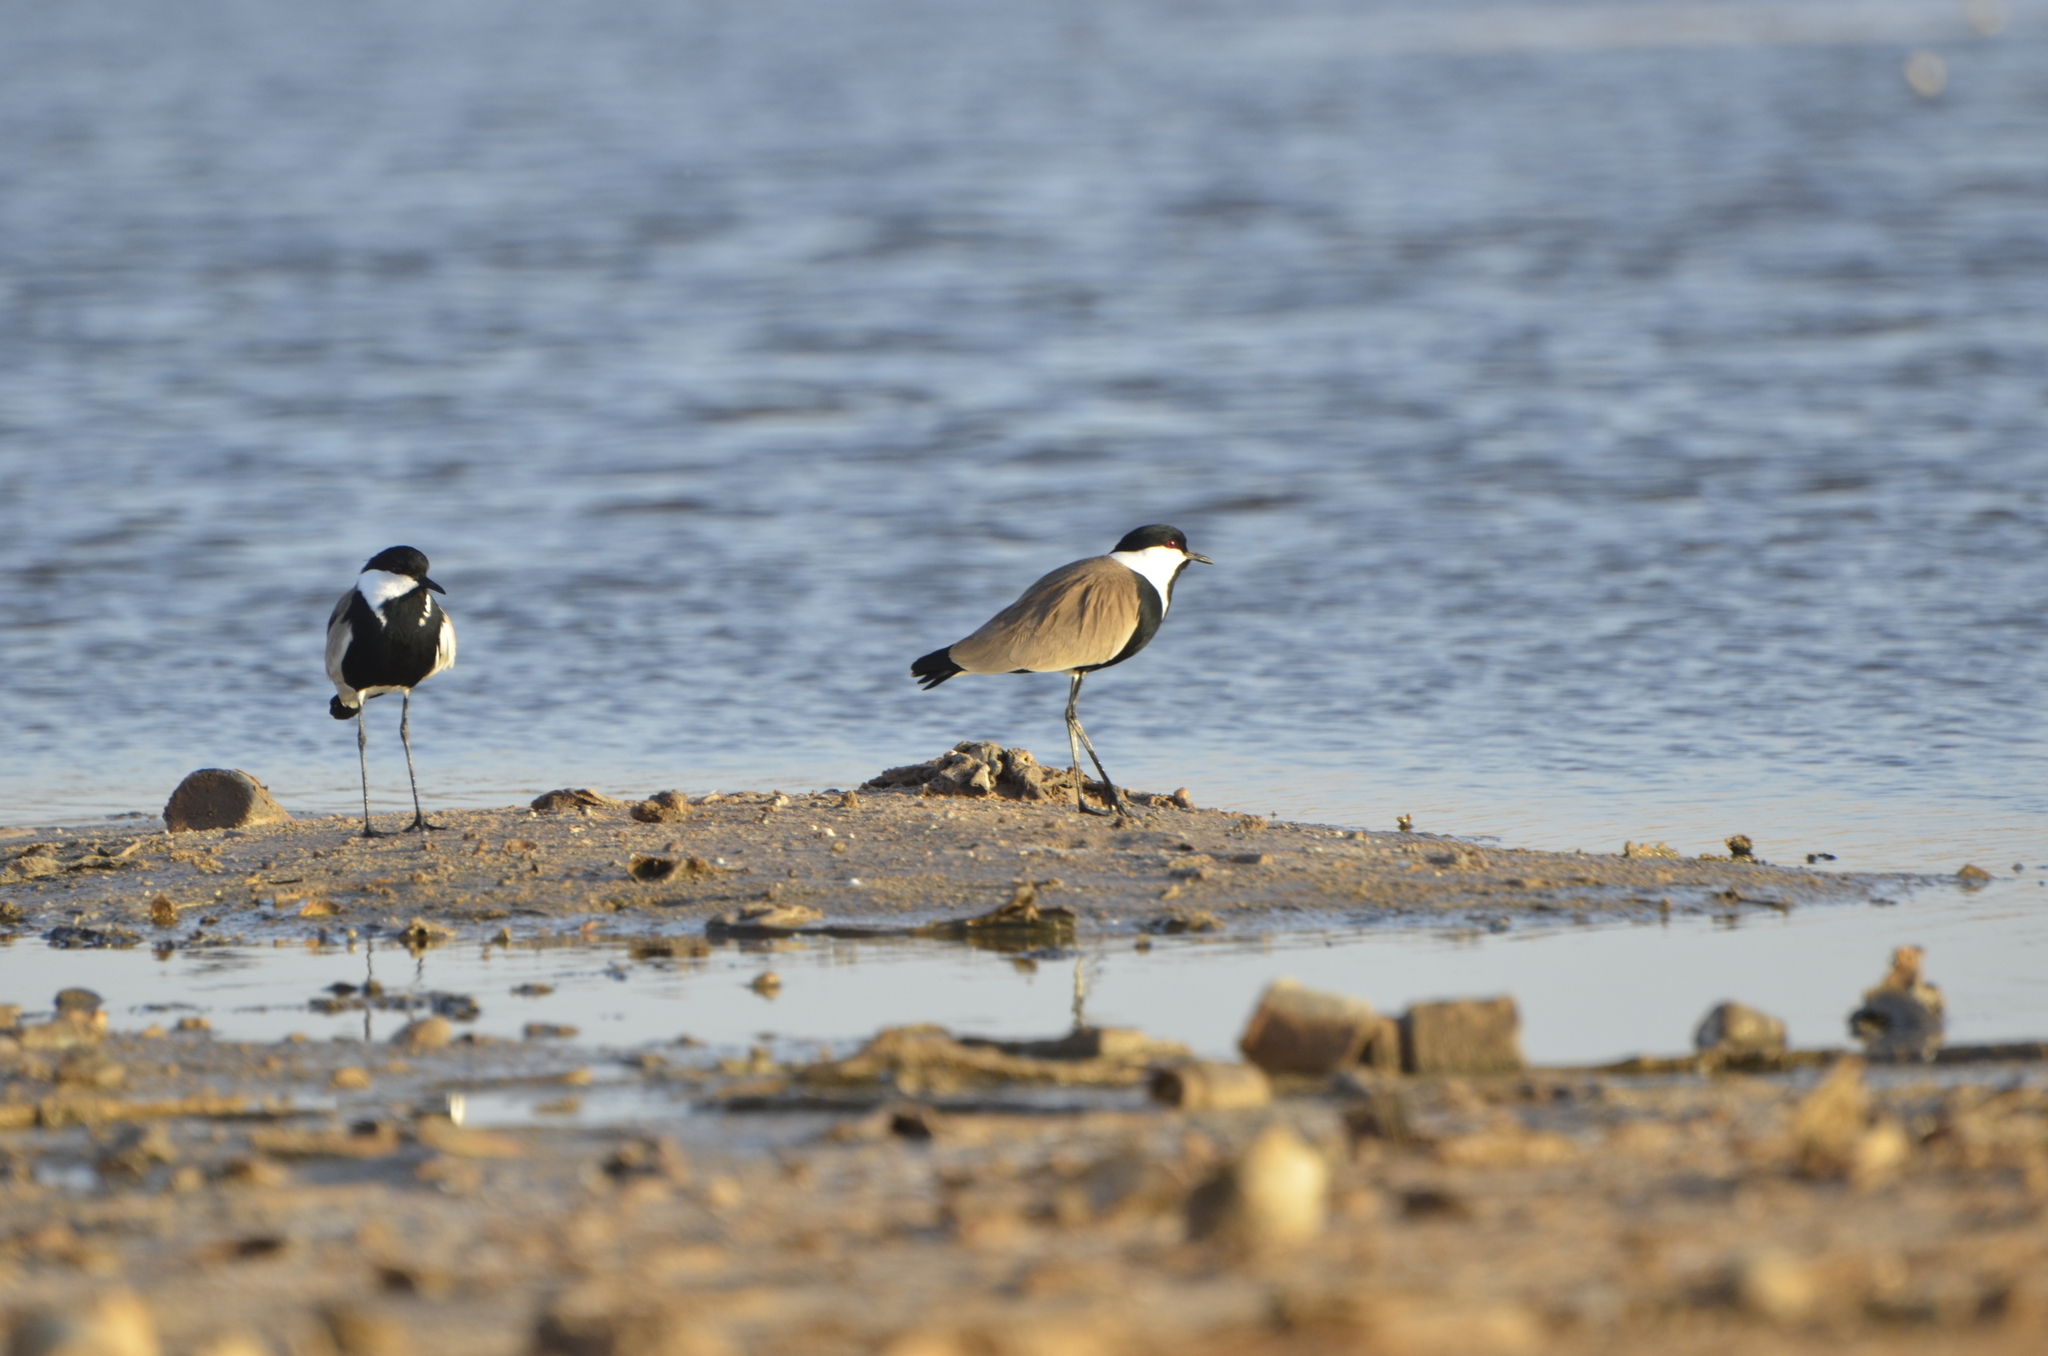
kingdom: Animalia
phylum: Chordata
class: Aves
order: Charadriiformes
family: Charadriidae
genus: Vanellus
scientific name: Vanellus spinosus
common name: Spur-winged lapwing
